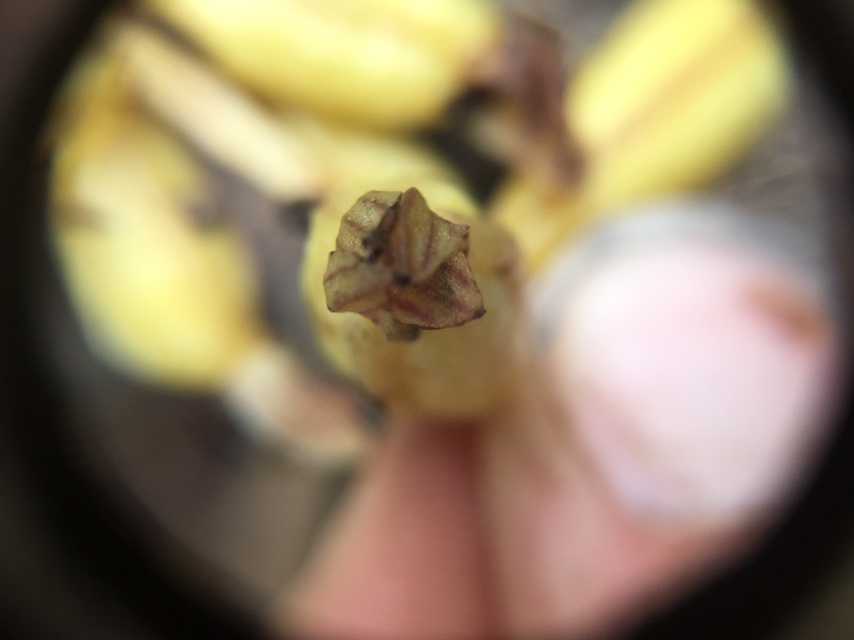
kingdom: Plantae
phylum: Tracheophyta
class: Liliopsida
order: Asparagales
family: Orchidaceae
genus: Corallorhiza
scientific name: Corallorhiza striata
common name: Hooded coralroot
